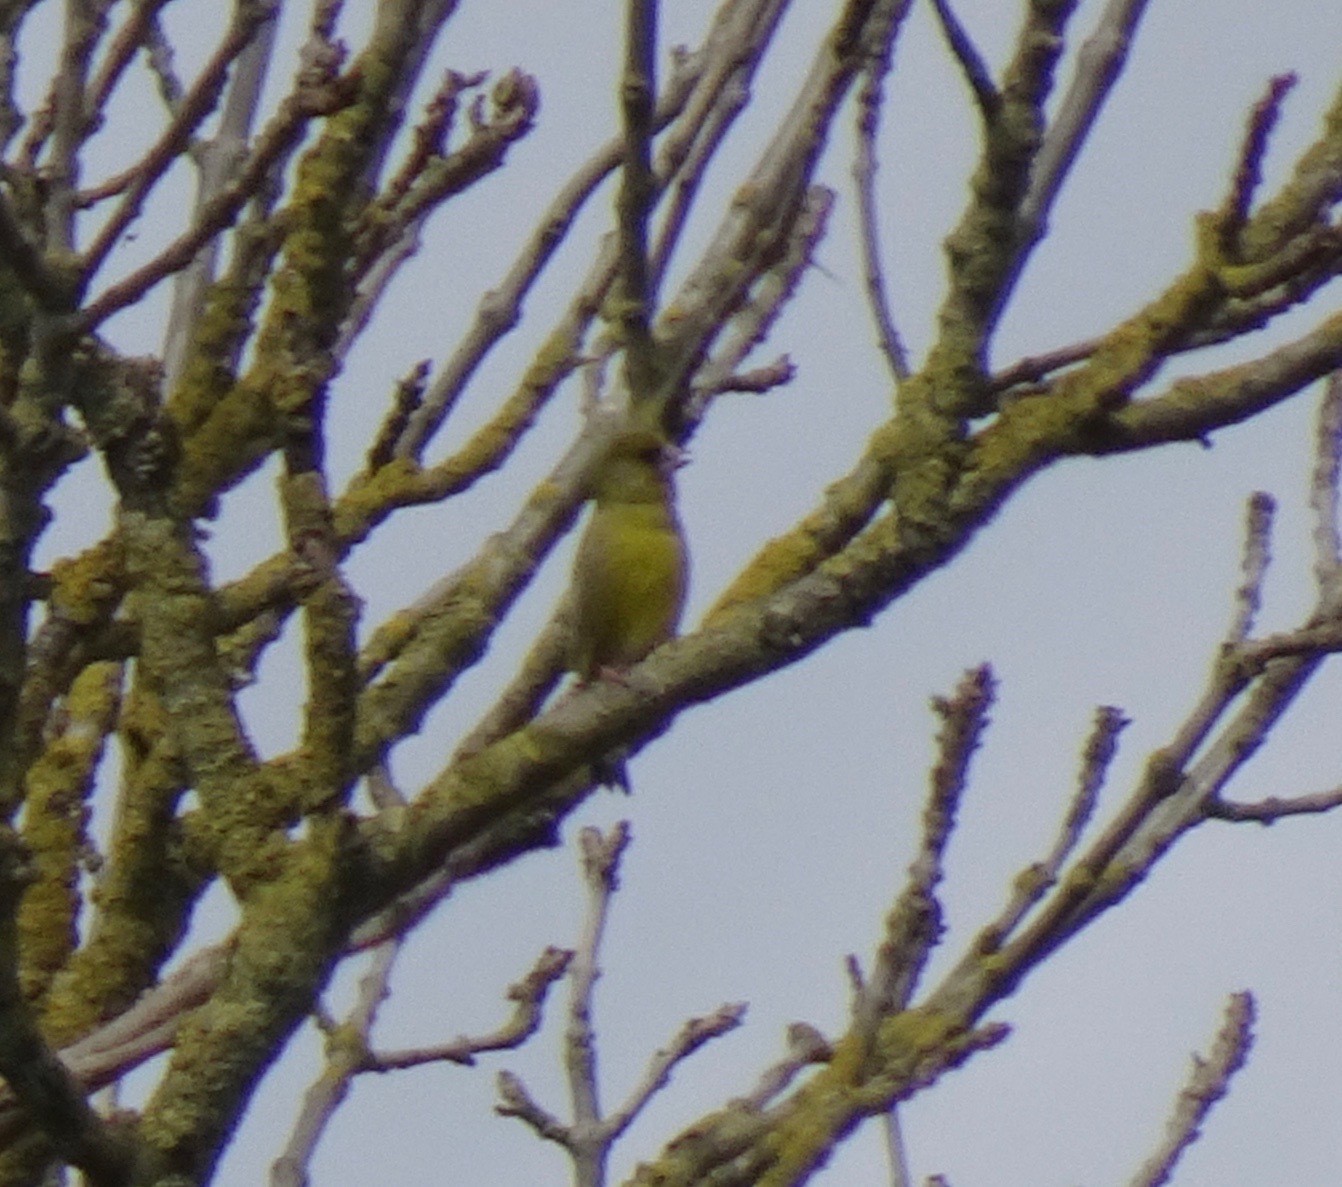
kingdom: Plantae
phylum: Tracheophyta
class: Liliopsida
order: Poales
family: Poaceae
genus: Chloris
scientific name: Chloris chloris
